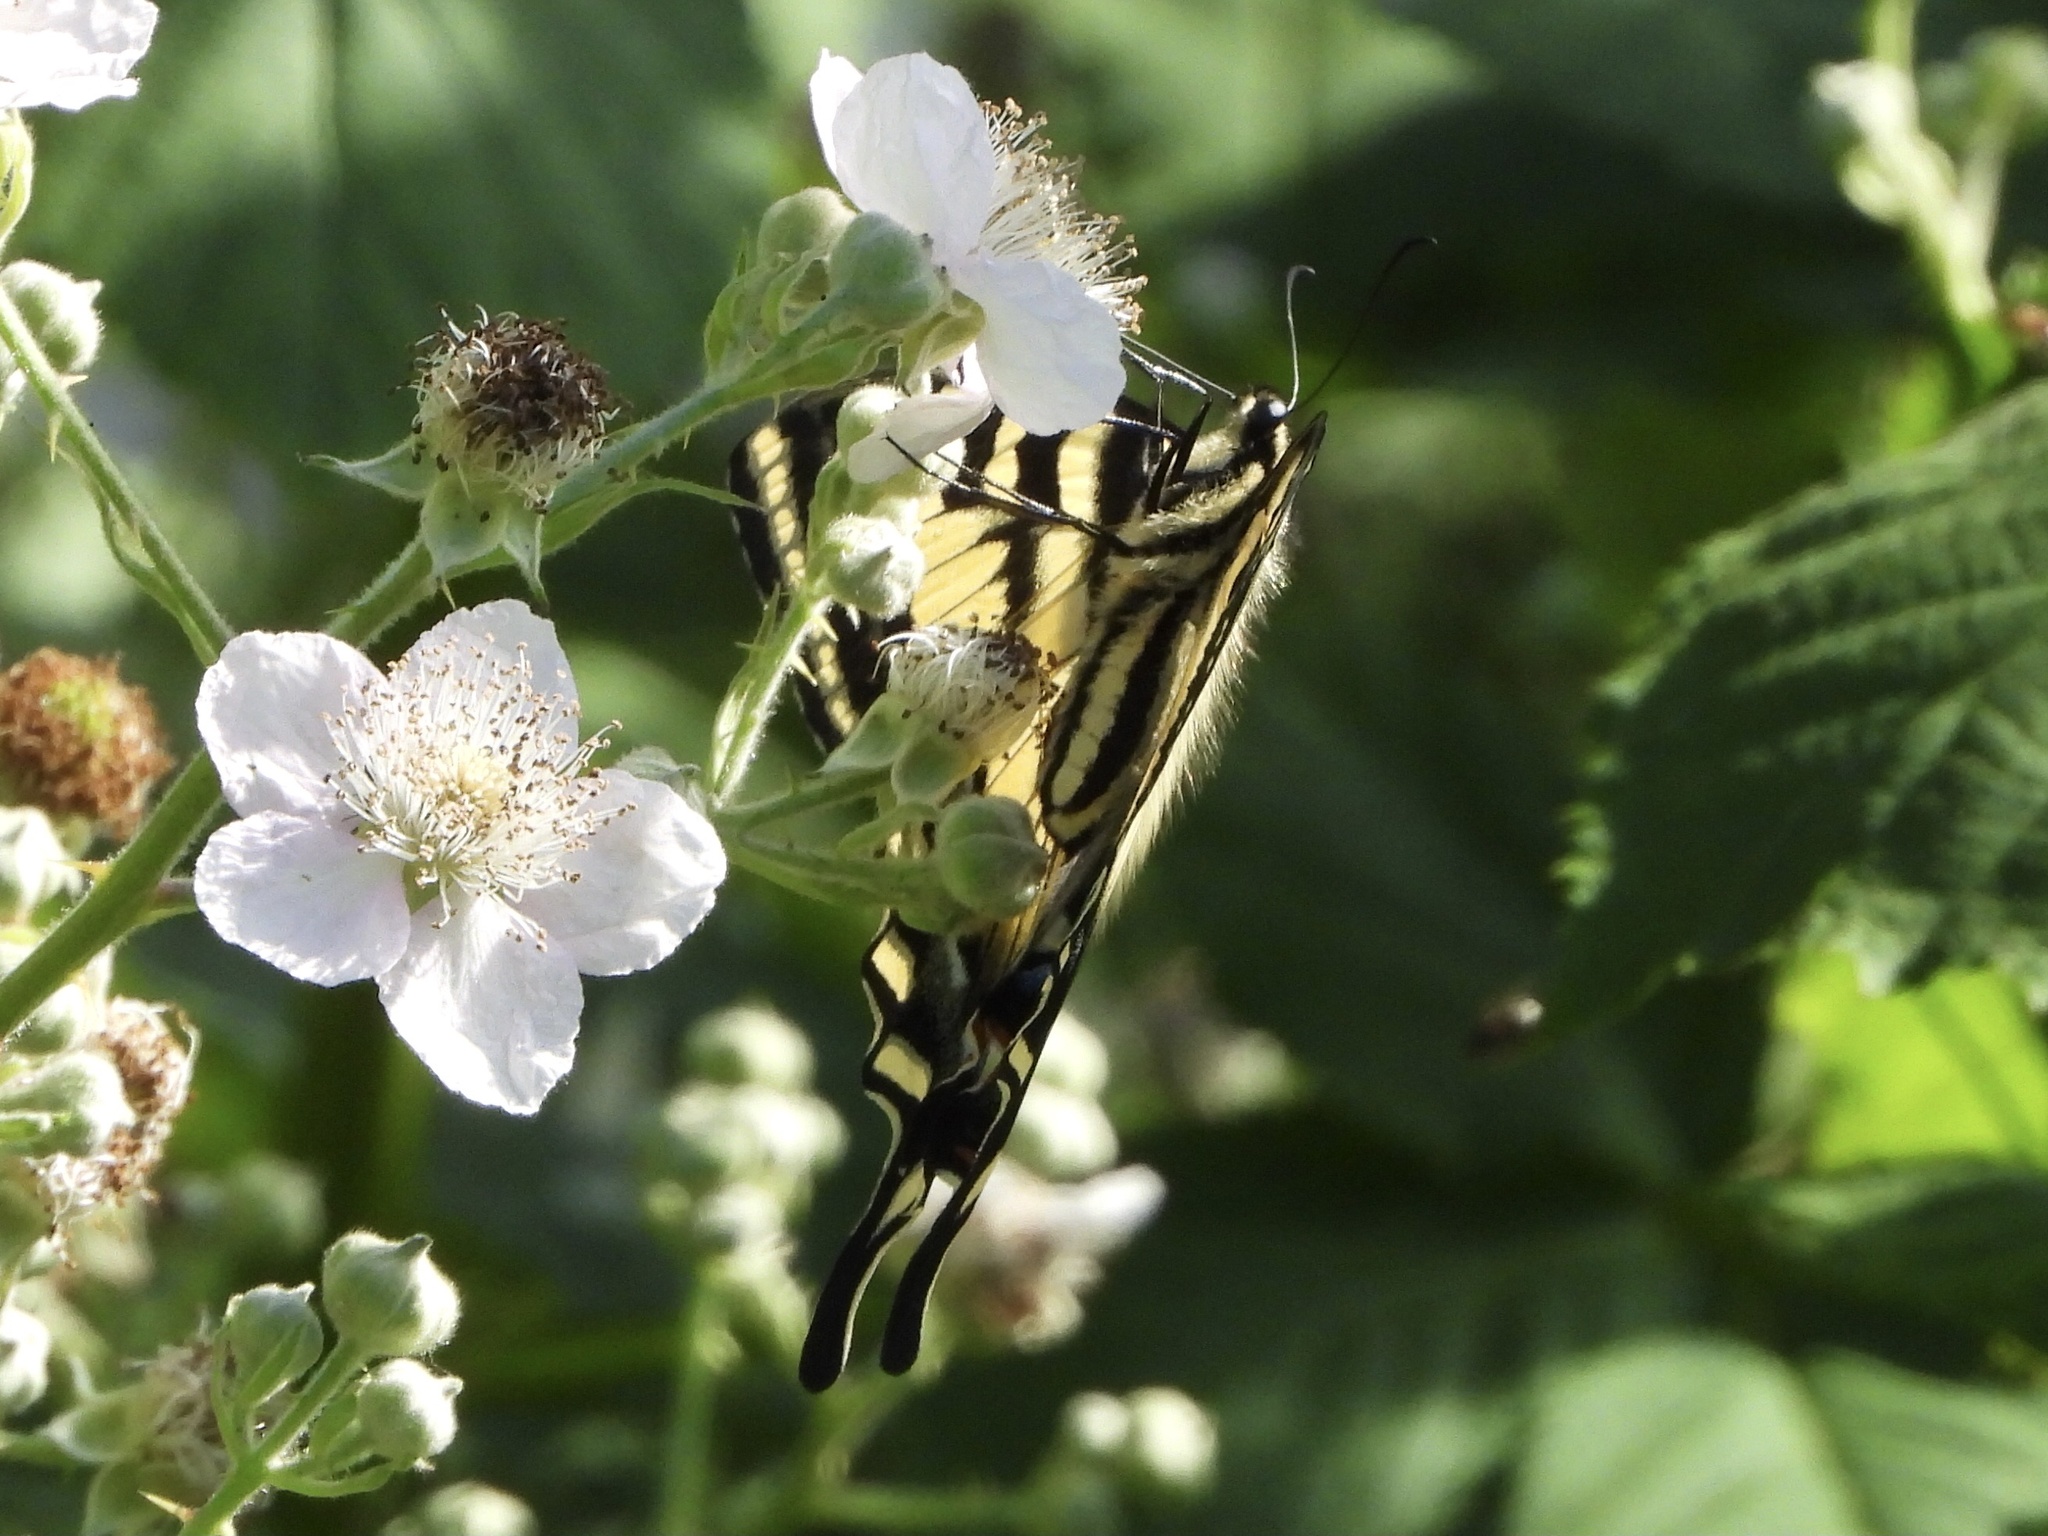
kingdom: Animalia
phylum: Arthropoda
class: Insecta
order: Lepidoptera
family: Papilionidae
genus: Papilio
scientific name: Papilio rutulus
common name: Western tiger swallowtail
